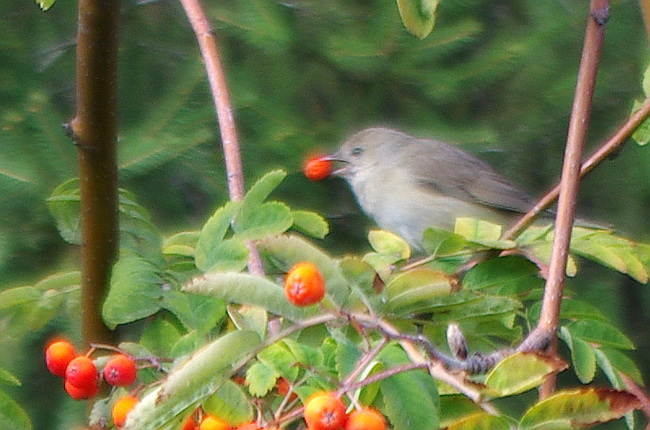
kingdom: Animalia
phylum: Chordata
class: Aves
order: Passeriformes
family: Sylviidae
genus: Sylvia
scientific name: Sylvia borin
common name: Garden warbler
